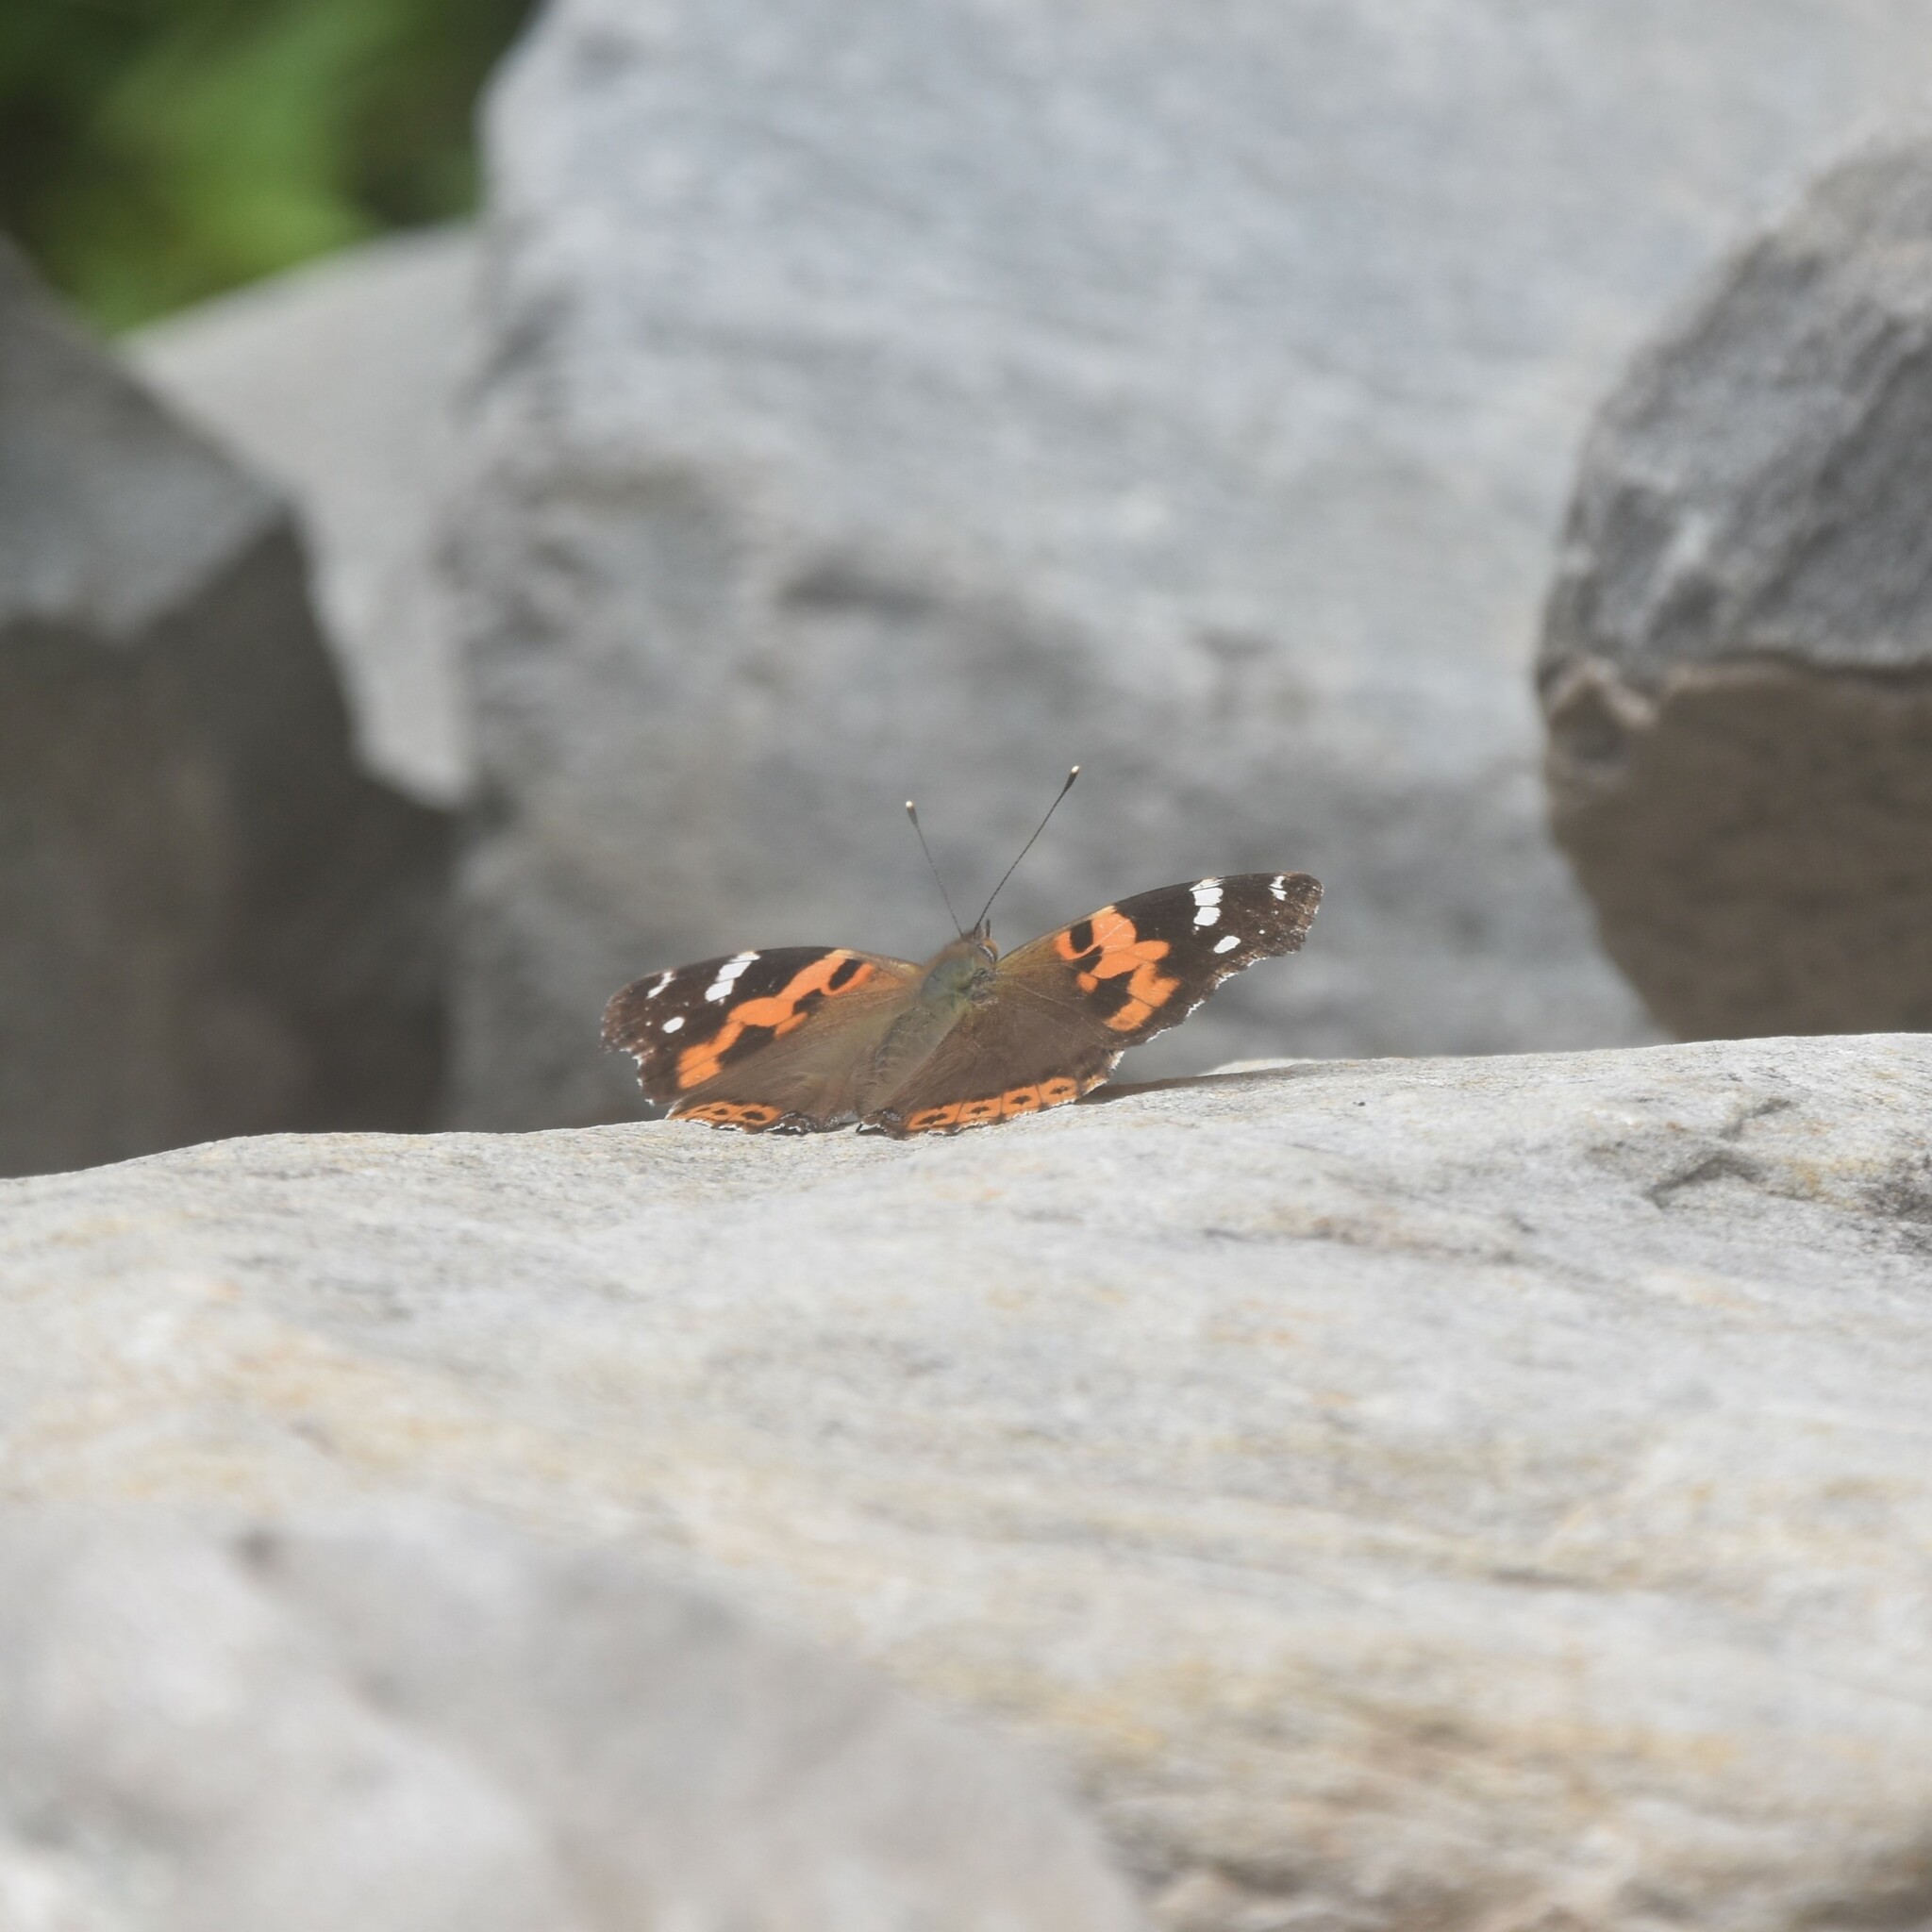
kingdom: Animalia
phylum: Arthropoda
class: Insecta
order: Lepidoptera
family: Nymphalidae
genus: Vanessa
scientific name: Vanessa indica
